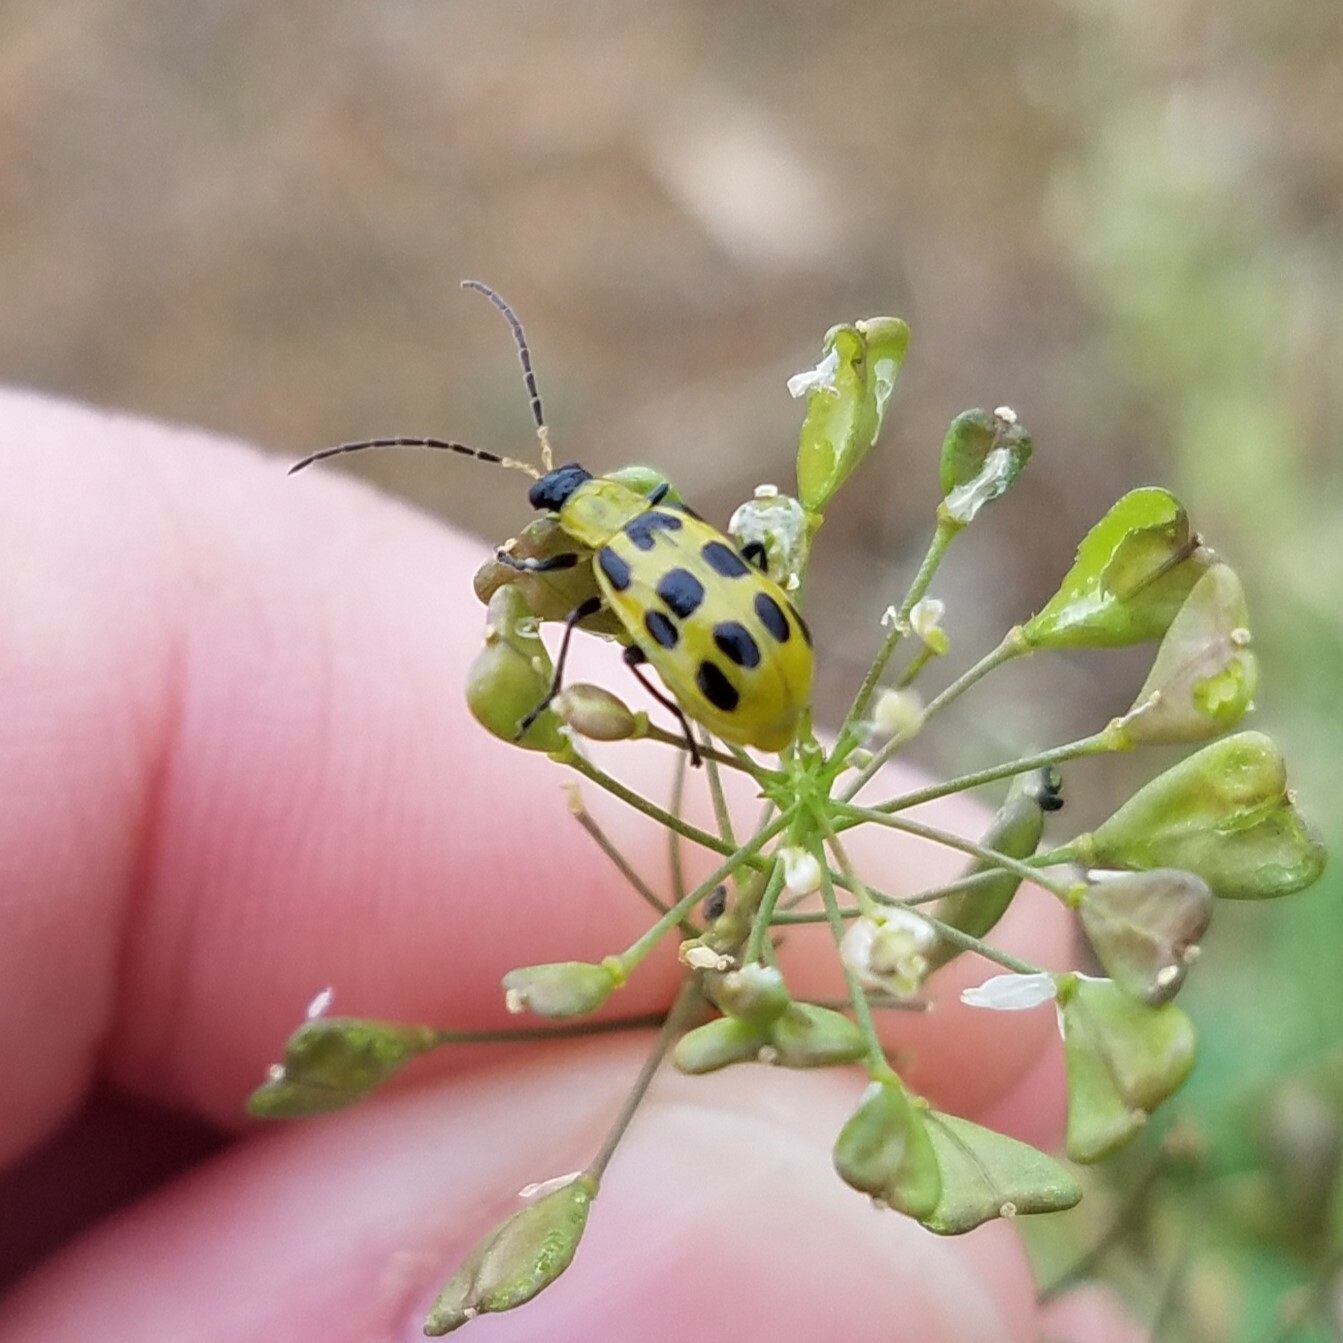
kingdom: Animalia
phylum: Arthropoda
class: Insecta
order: Coleoptera
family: Chrysomelidae
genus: Diabrotica
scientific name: Diabrotica undecimpunctata
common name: Spotted cucumber beetle
